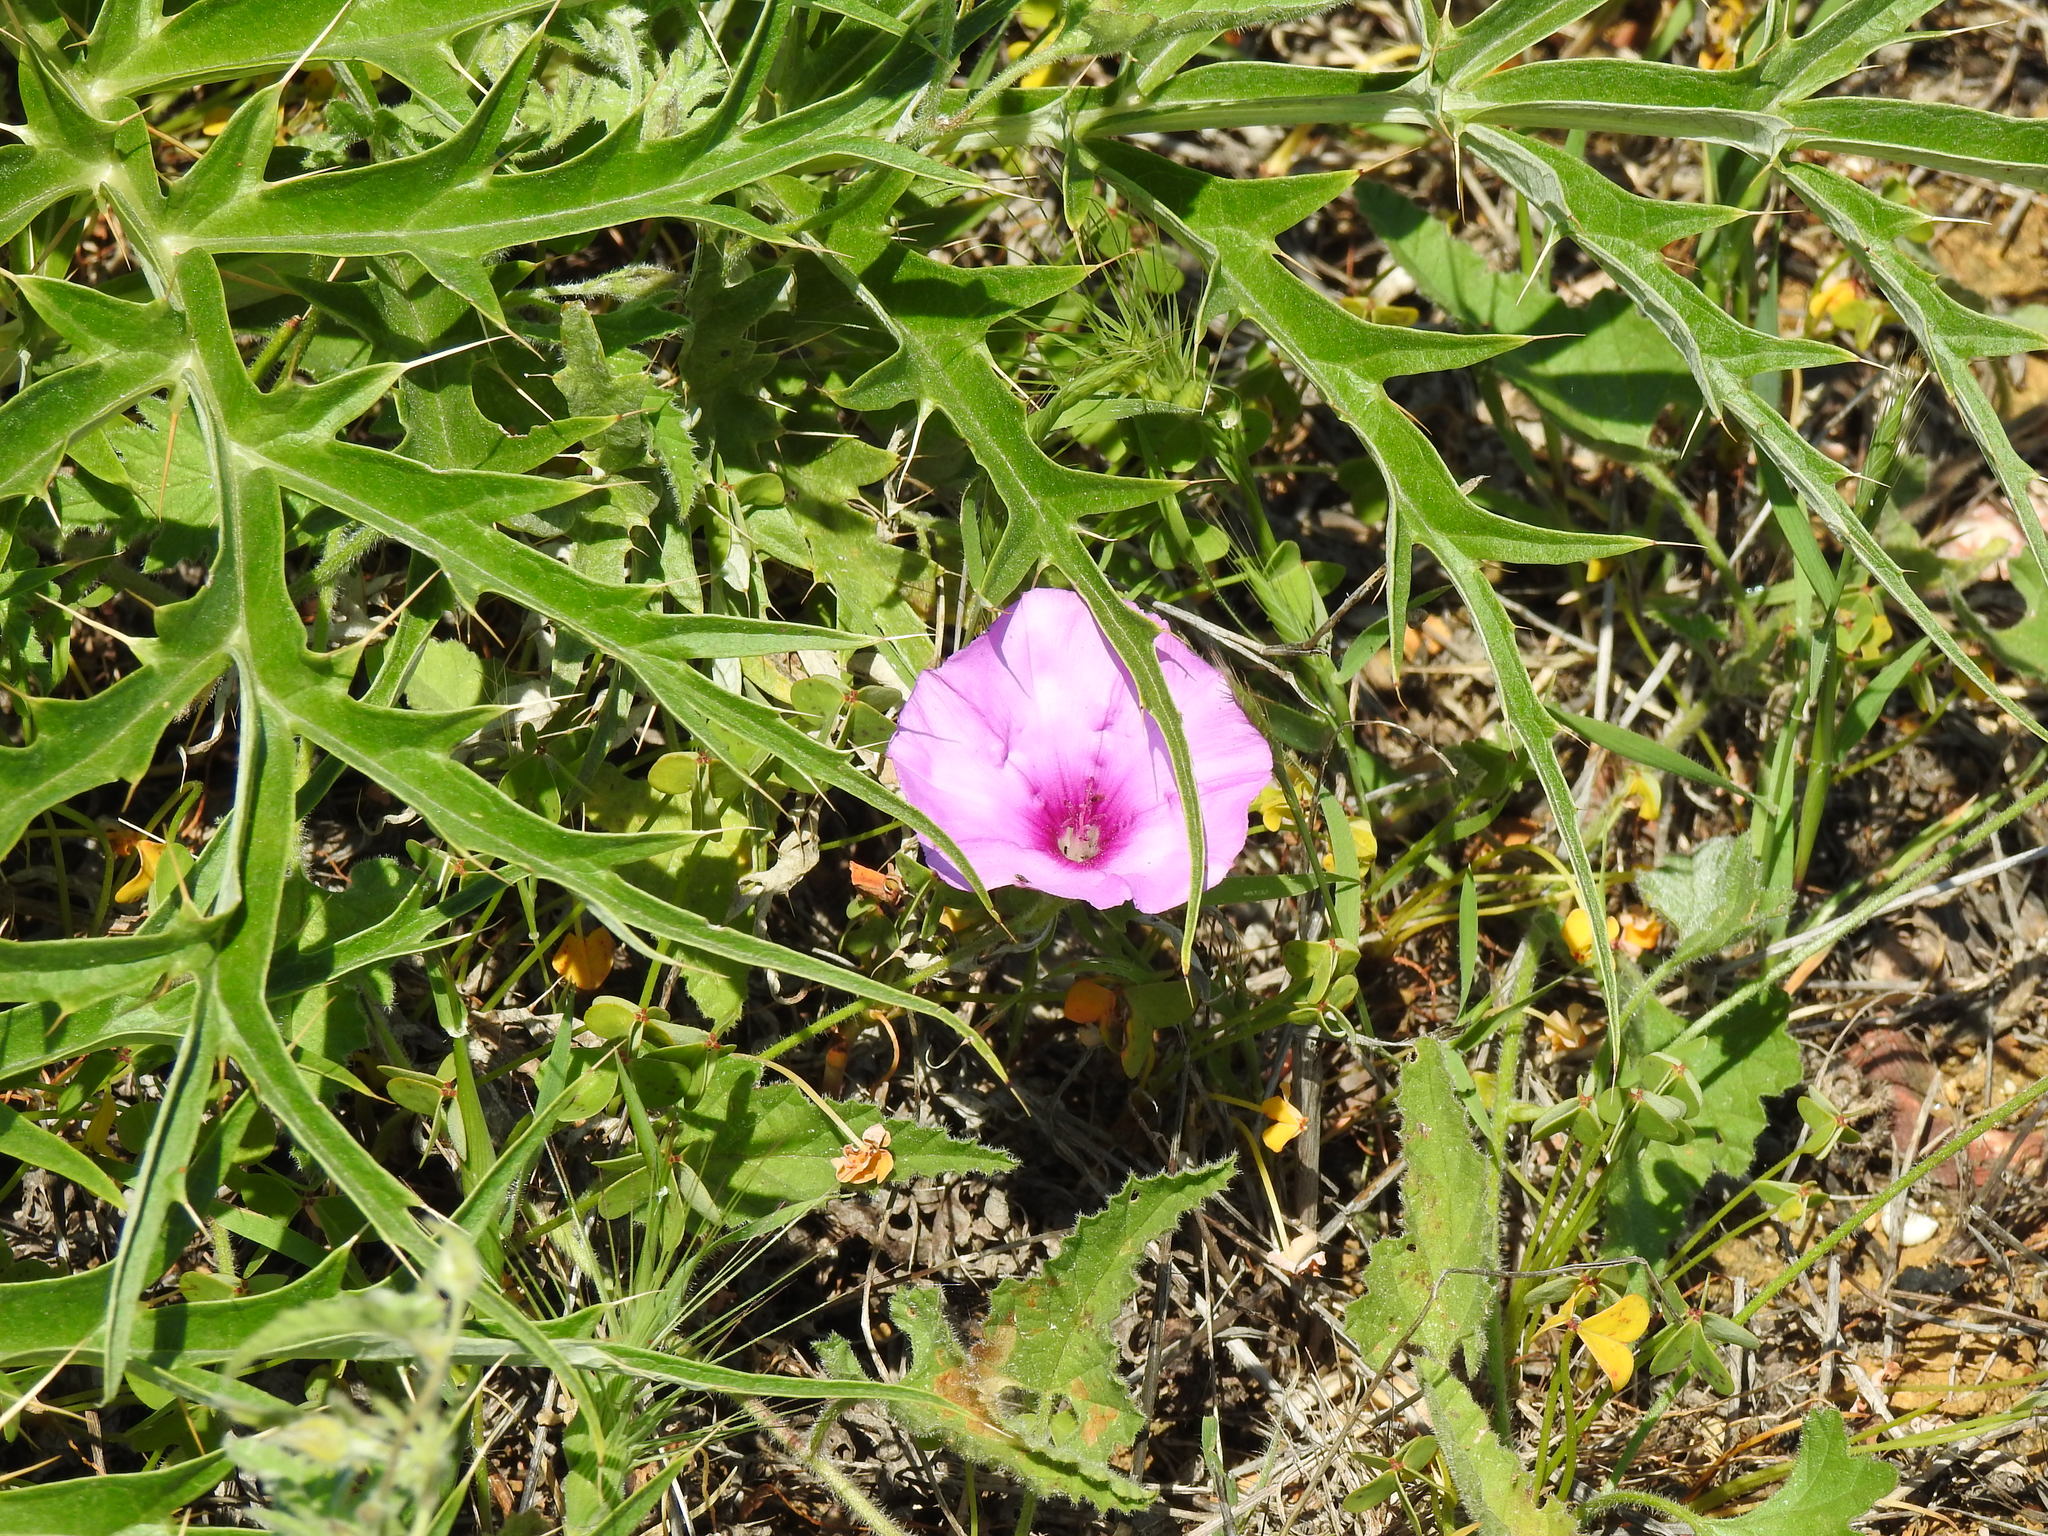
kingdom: Plantae
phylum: Tracheophyta
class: Magnoliopsida
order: Solanales
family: Convolvulaceae
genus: Convolvulus
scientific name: Convolvulus althaeoides
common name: Mallow bindweed
